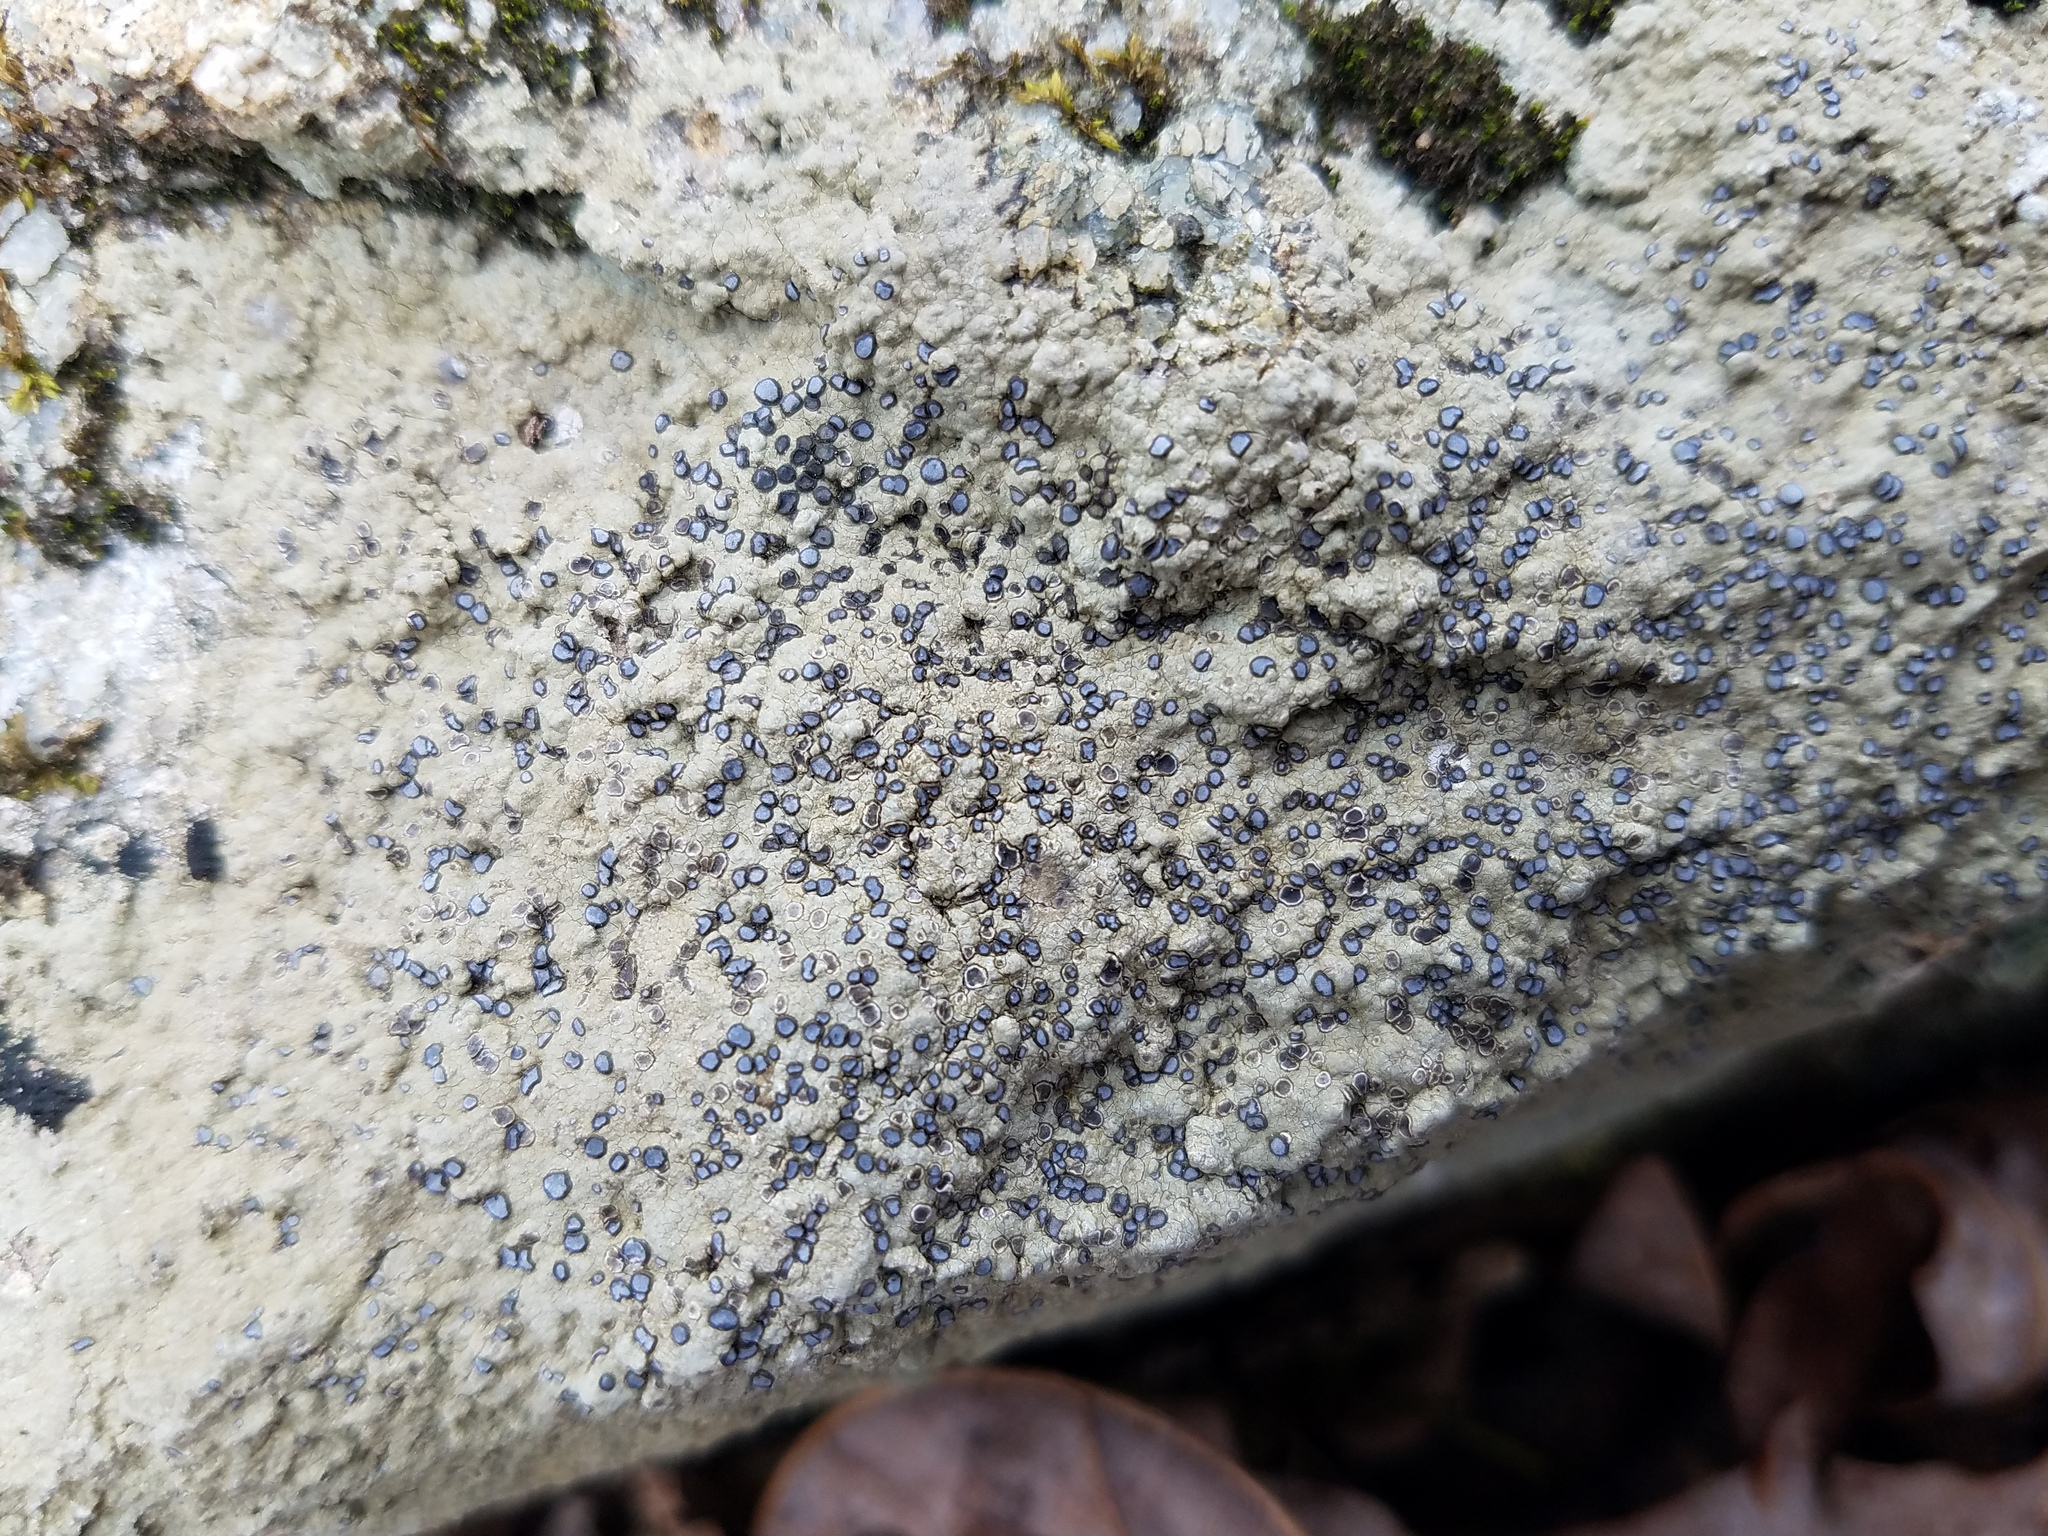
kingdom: Fungi
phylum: Ascomycota
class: Lecanoromycetes
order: Lecideales
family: Lecideaceae
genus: Porpidia
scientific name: Porpidia albocaerulescens
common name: Smokey-eyed boulder lichen
